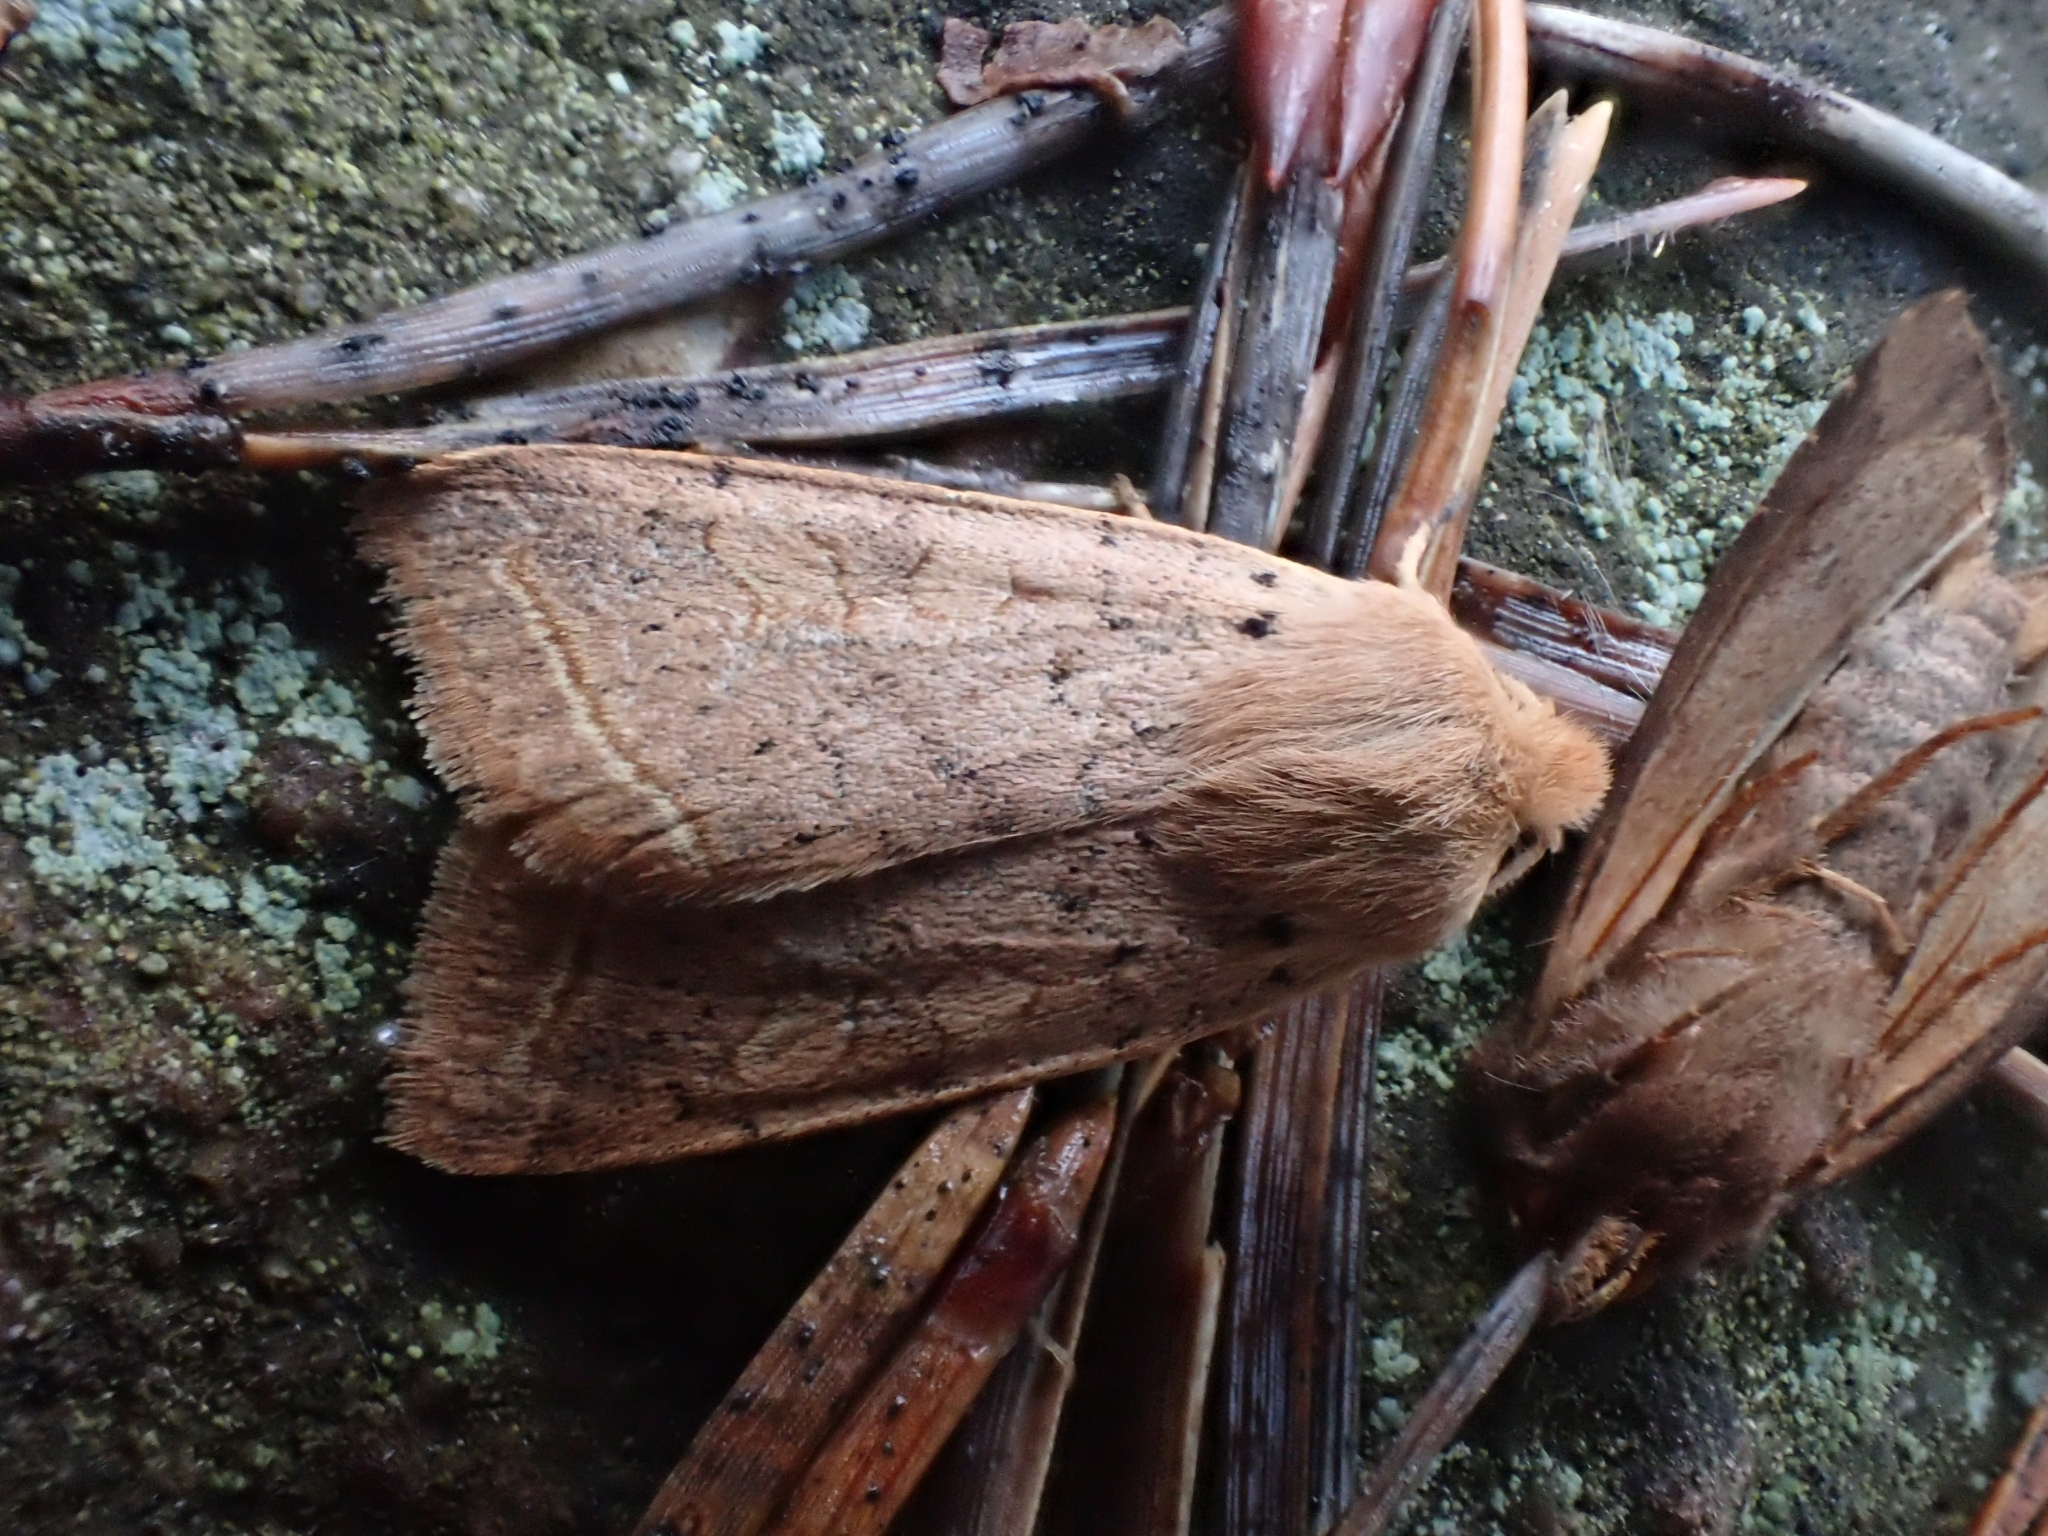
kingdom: Animalia
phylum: Arthropoda
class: Insecta
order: Lepidoptera
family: Noctuidae
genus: Agrochola
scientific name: Agrochola macilenta
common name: Yellow-line quaker
